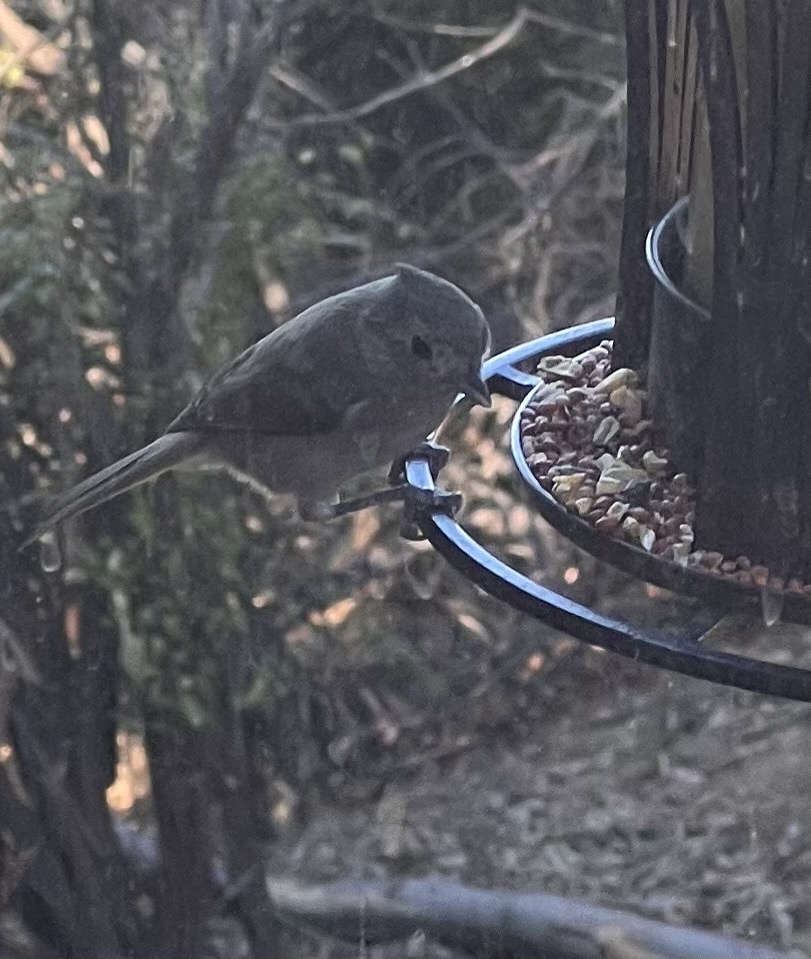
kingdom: Animalia
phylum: Chordata
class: Aves
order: Passeriformes
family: Paridae
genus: Baeolophus
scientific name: Baeolophus inornatus
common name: Oak titmouse
